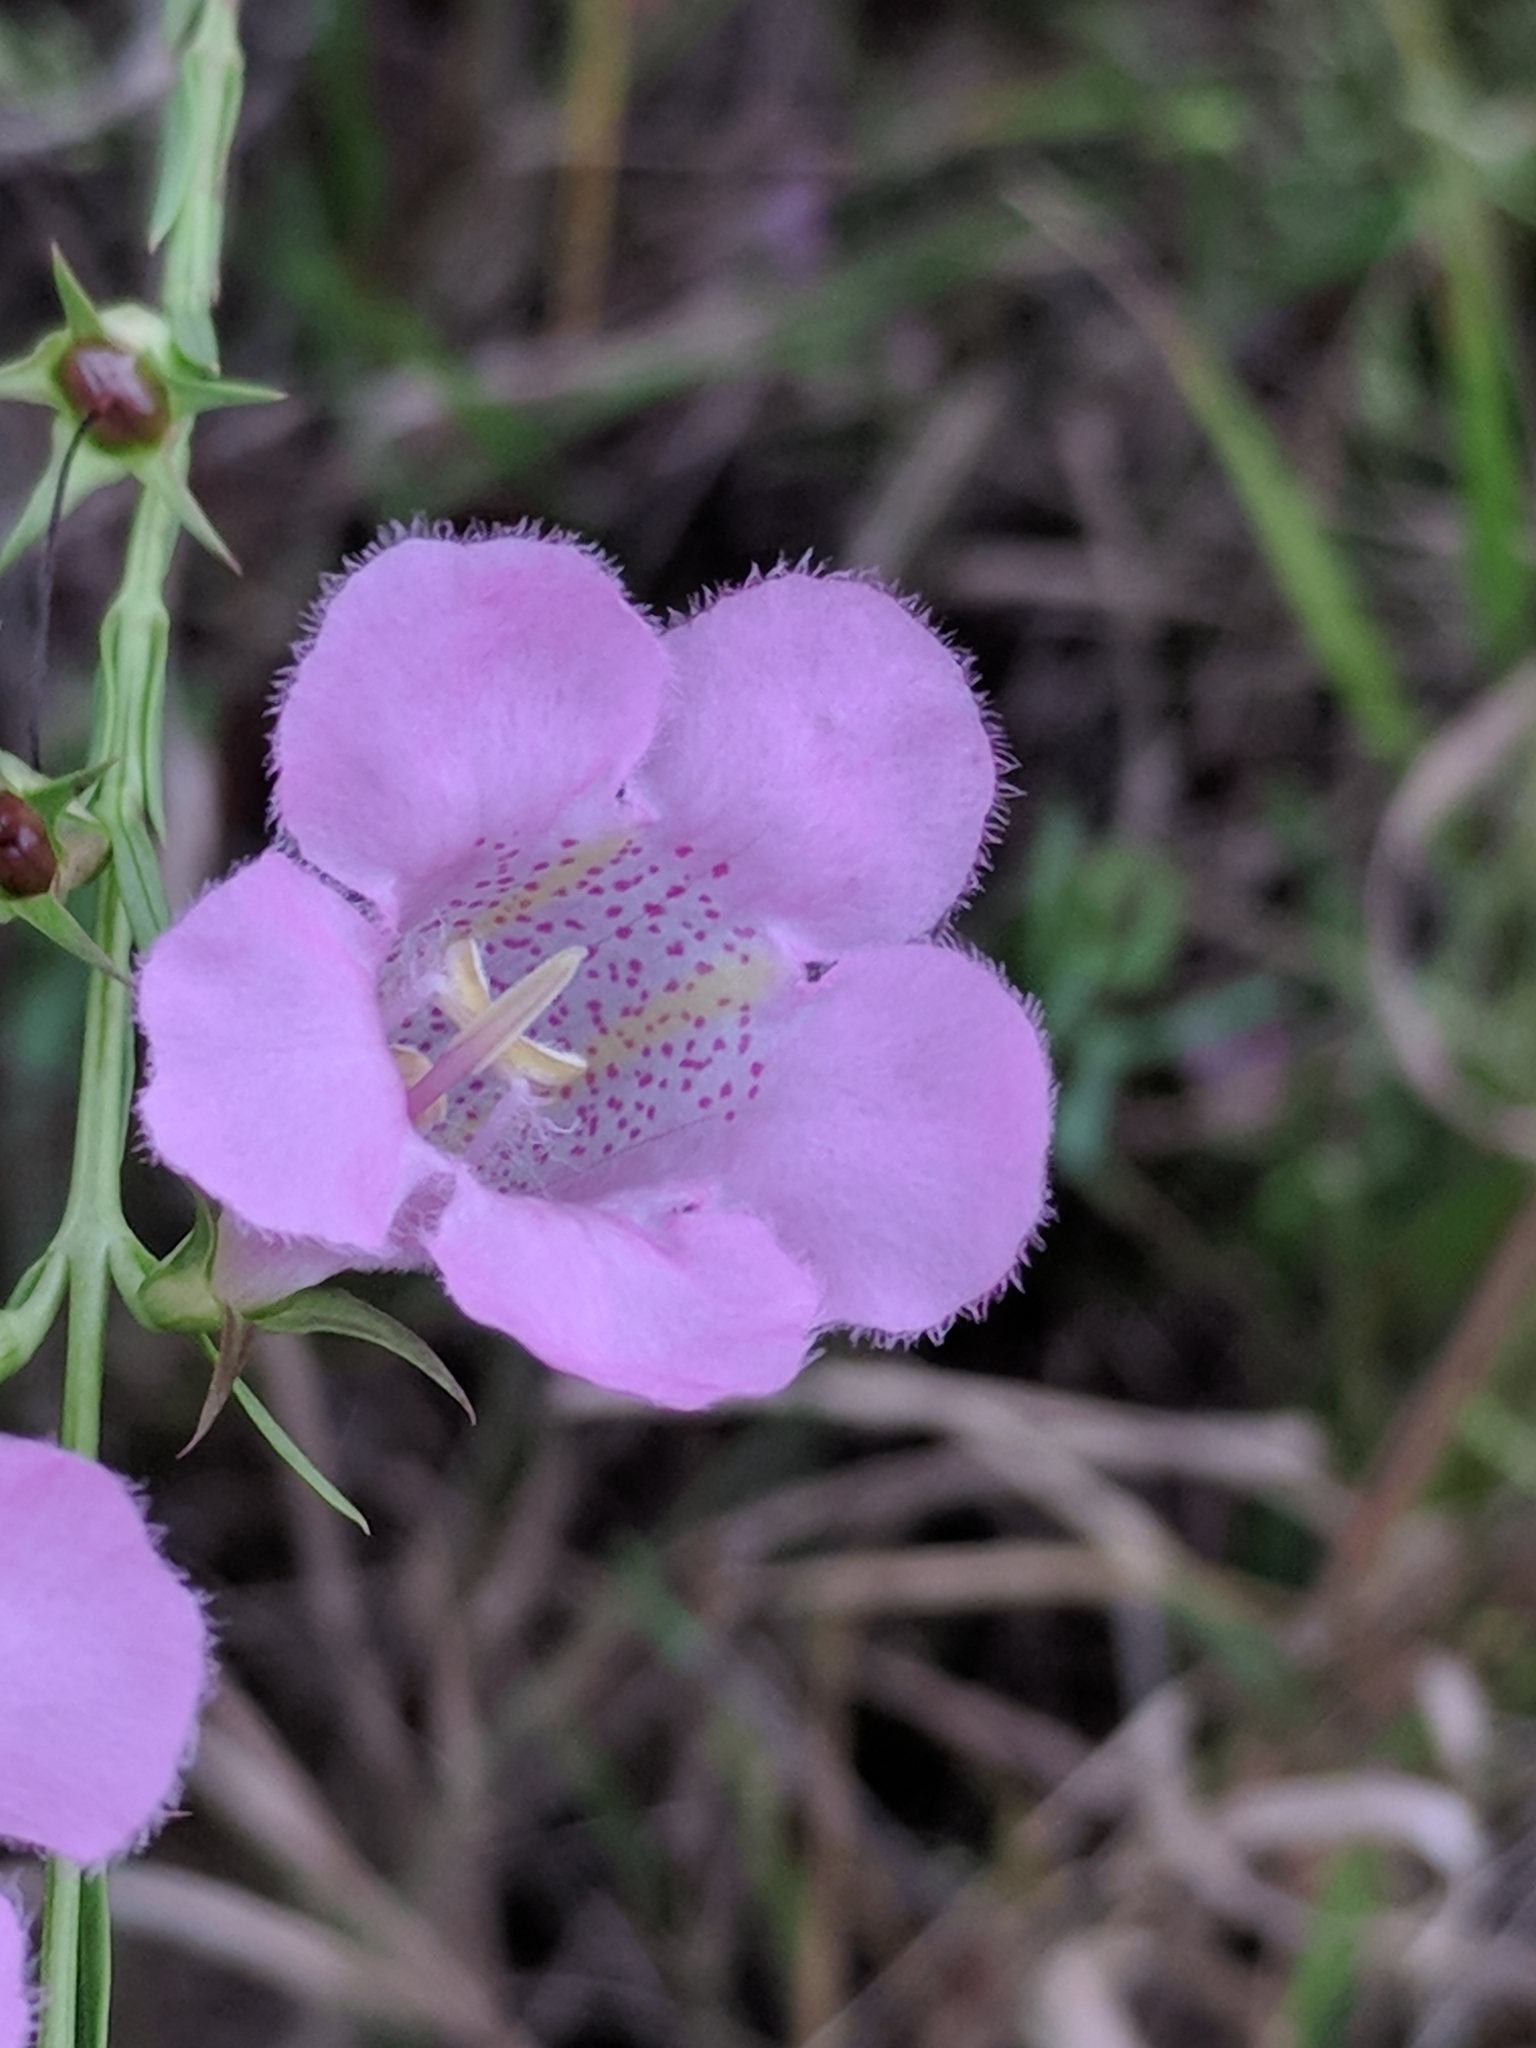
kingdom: Plantae
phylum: Tracheophyta
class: Magnoliopsida
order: Lamiales
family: Orobanchaceae
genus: Agalinis
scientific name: Agalinis heterophylla
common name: Prairie agalinis
